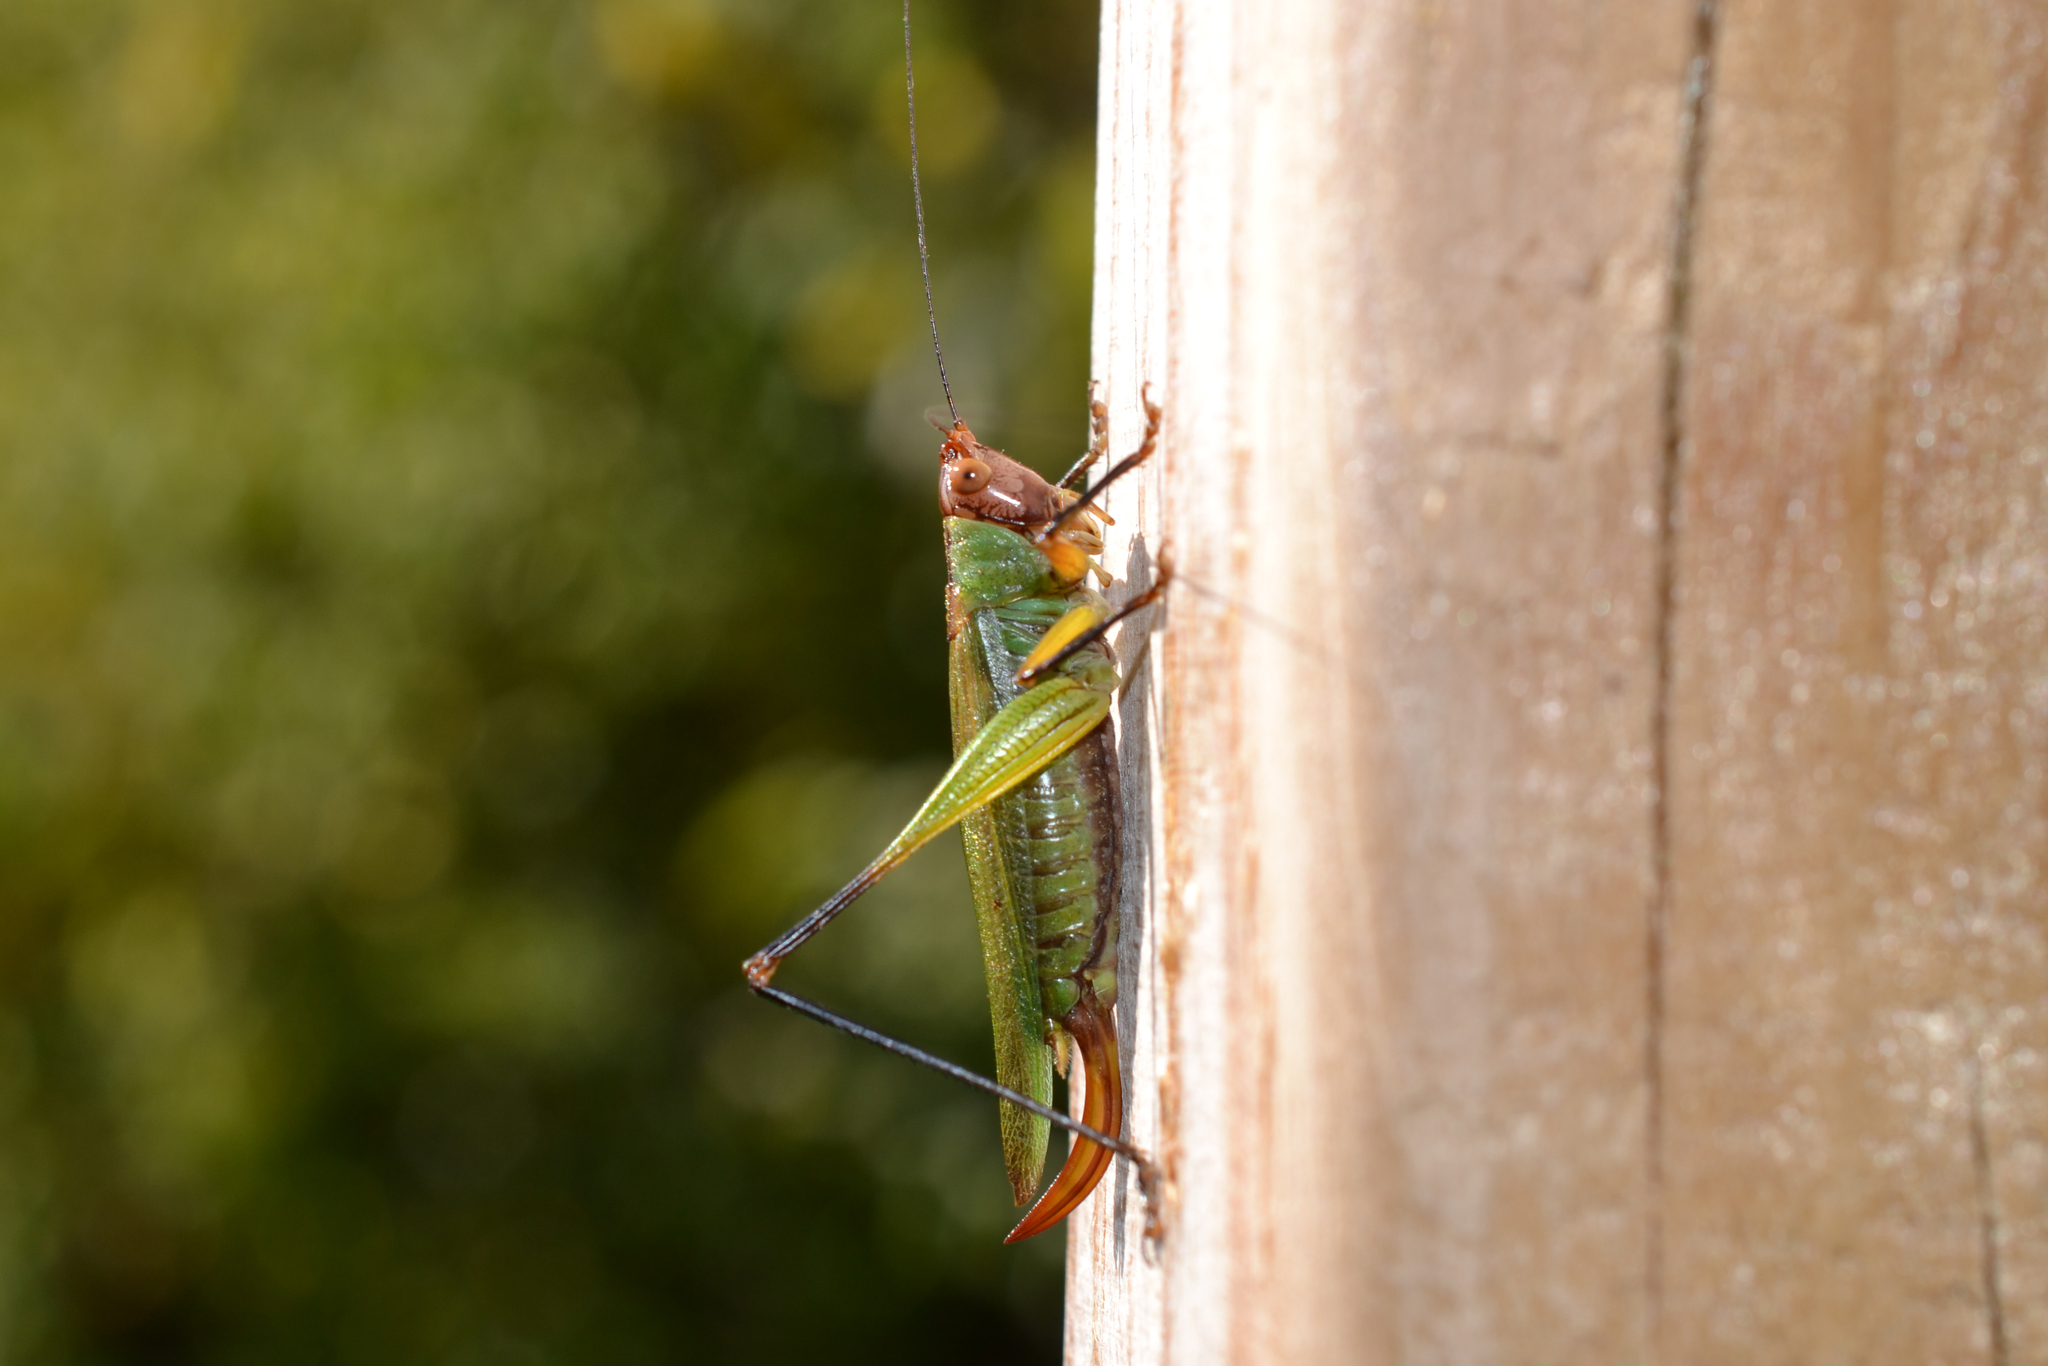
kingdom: Animalia
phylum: Arthropoda
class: Insecta
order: Orthoptera
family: Tettigoniidae
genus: Orchelimum
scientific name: Orchelimum nigripes
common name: Black-legged meadow katydid
